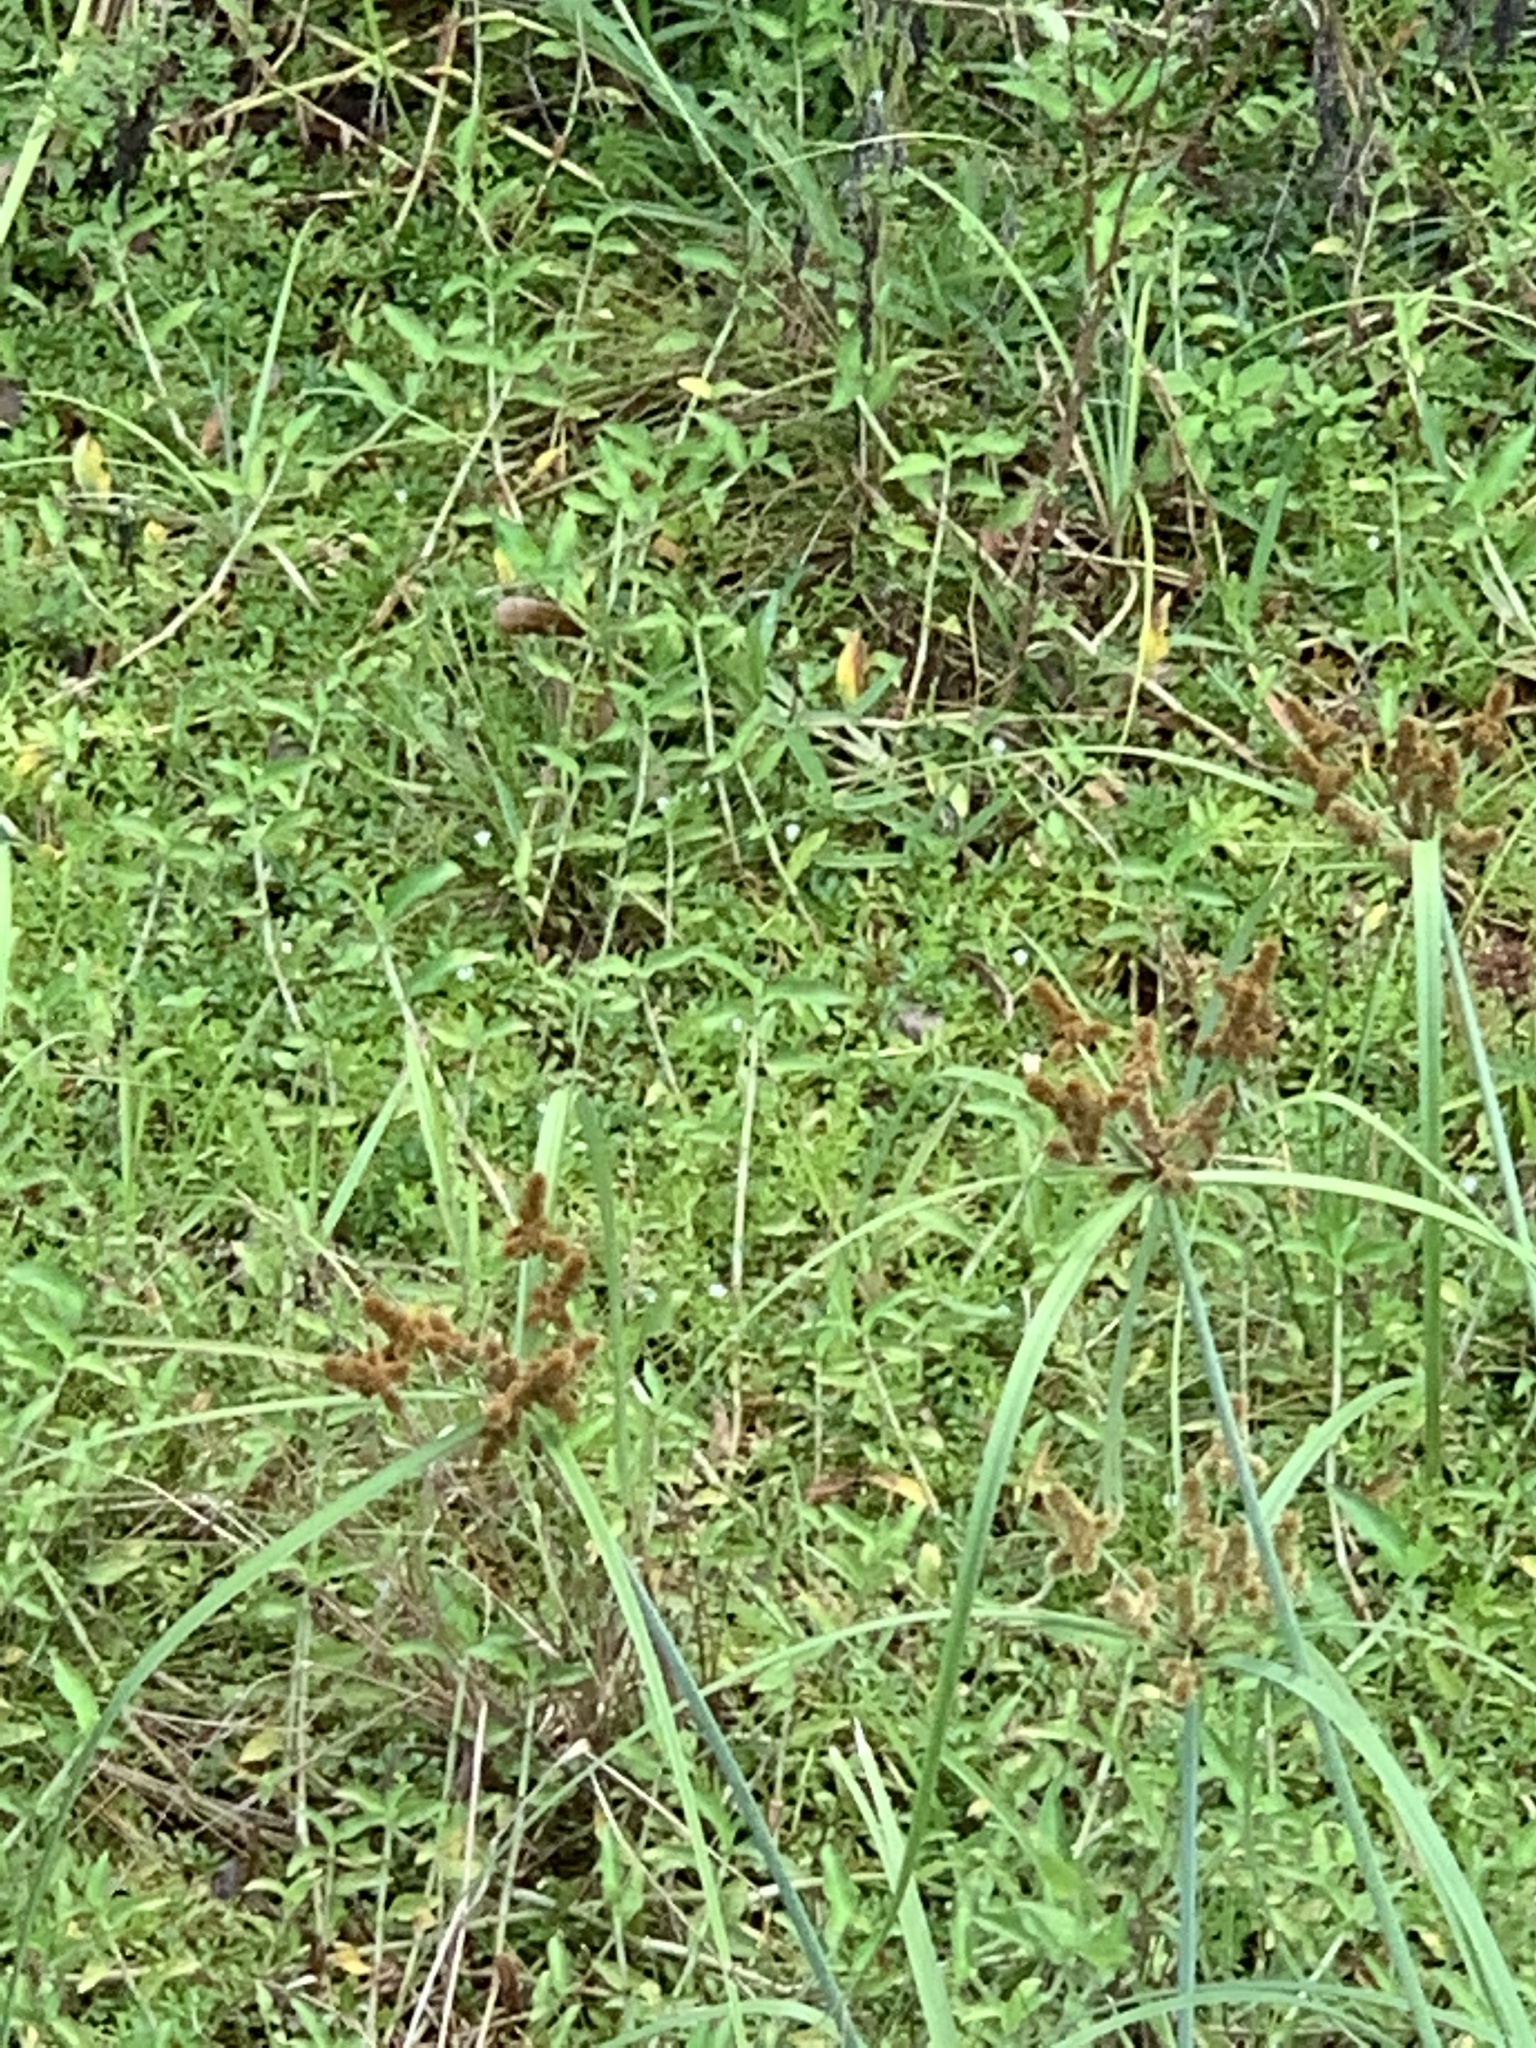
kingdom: Plantae
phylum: Tracheophyta
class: Liliopsida
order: Poales
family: Cyperaceae
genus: Cyperus
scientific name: Cyperus ligularis
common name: Swamp flat sedge
